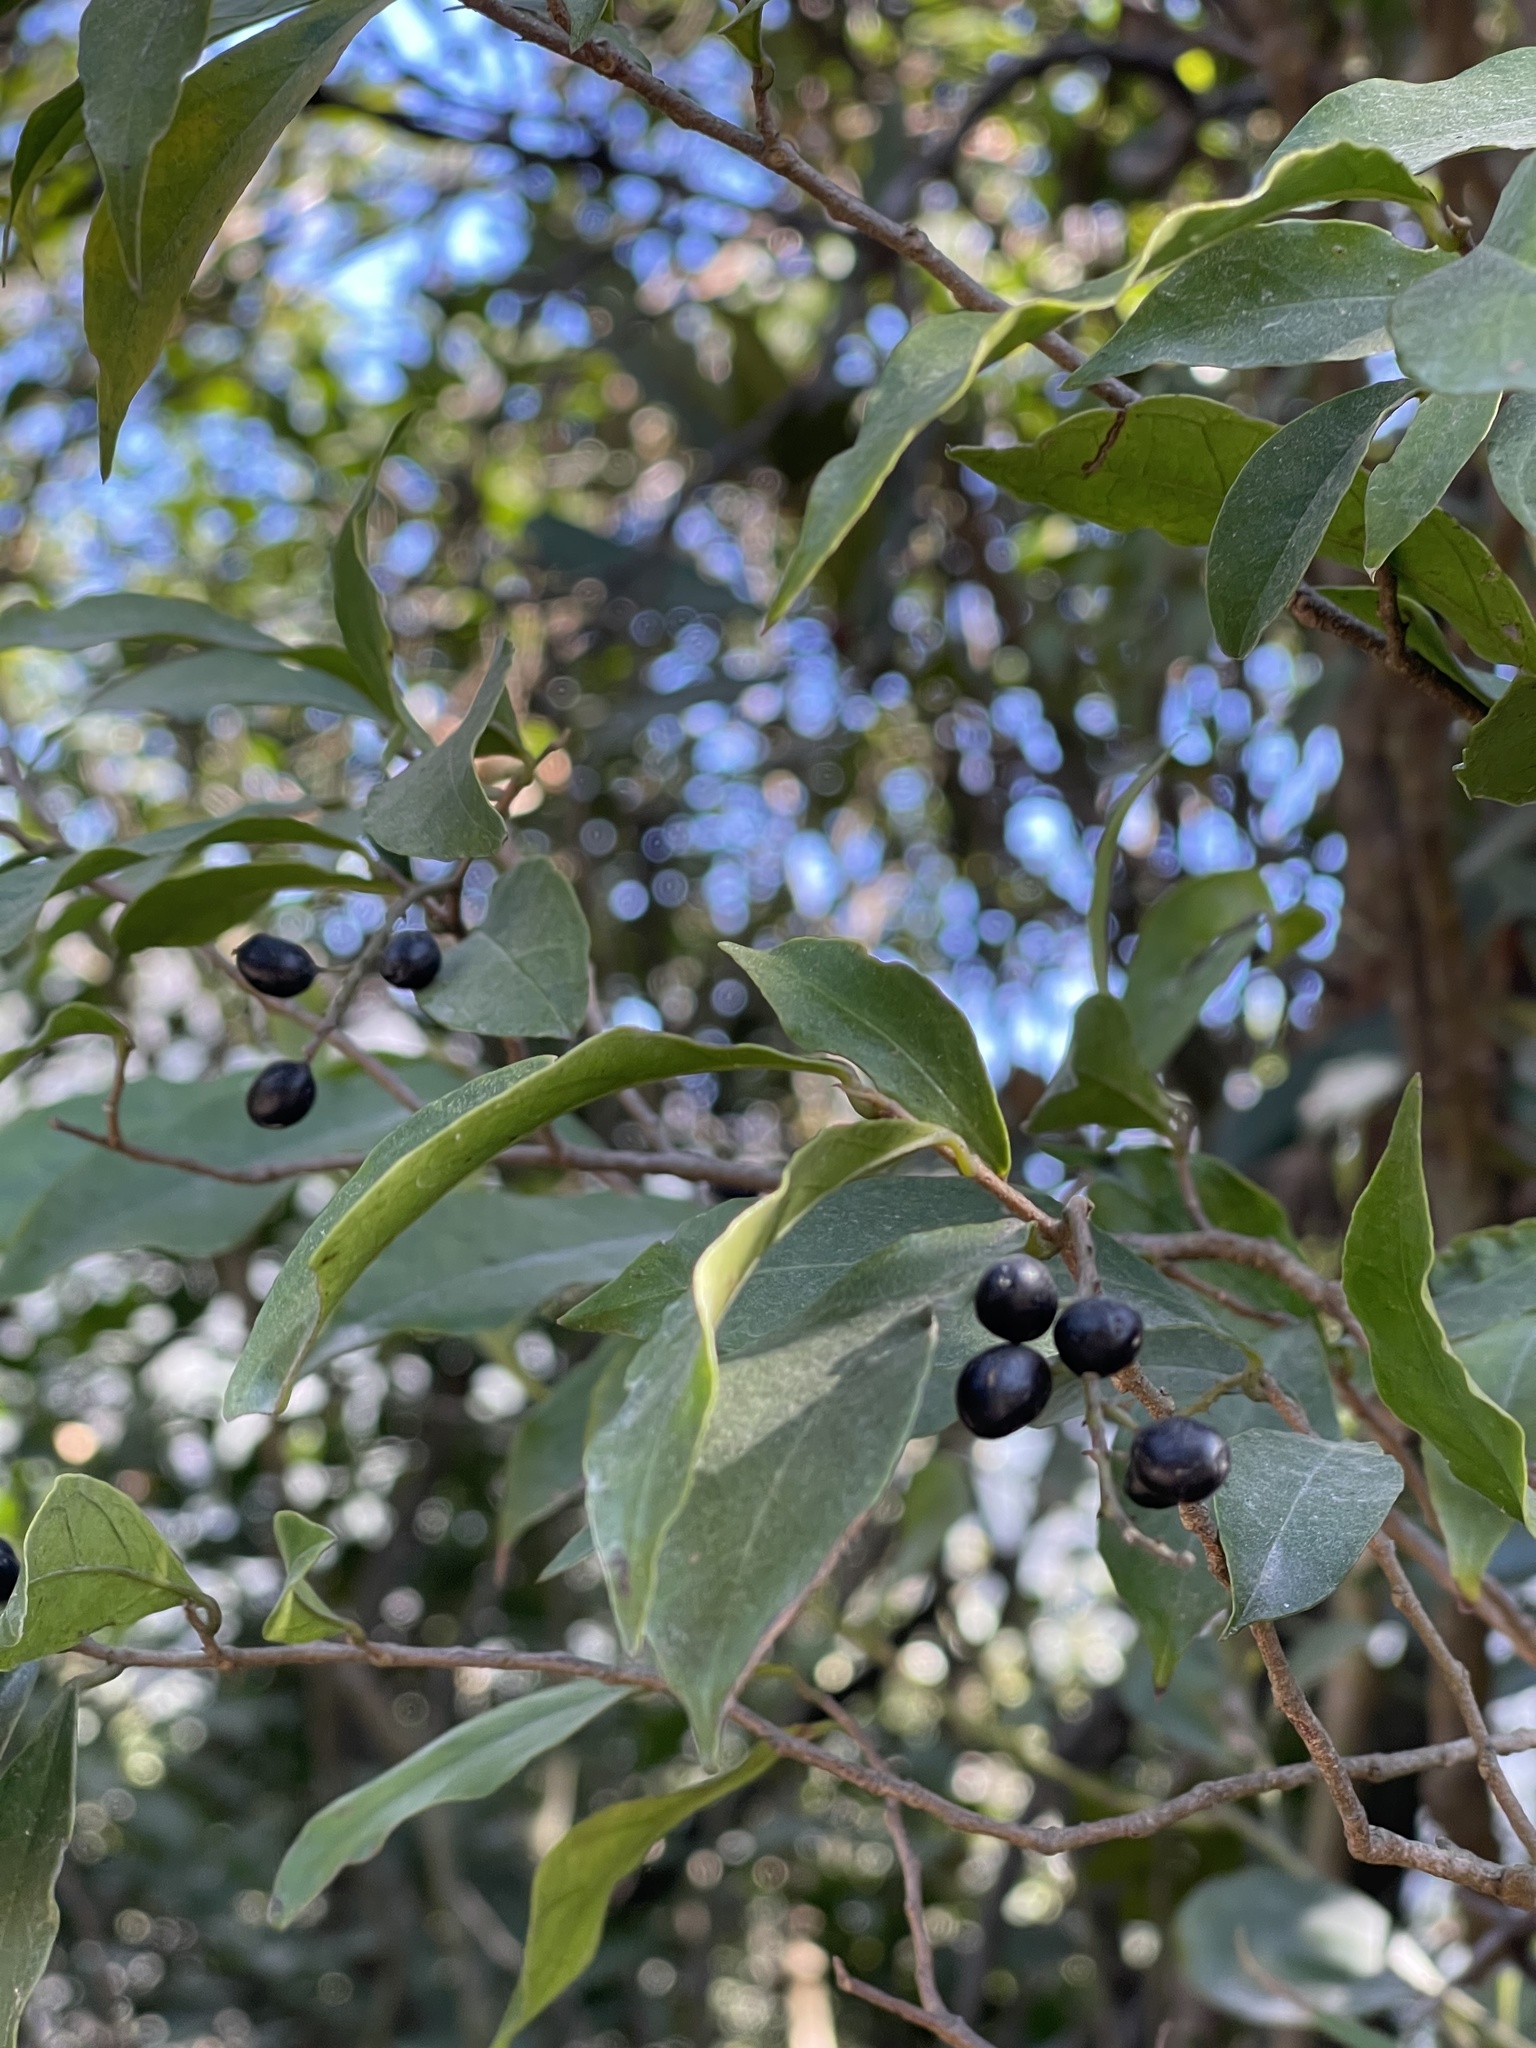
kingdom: Plantae
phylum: Tracheophyta
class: Magnoliopsida
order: Malpighiales
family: Phyllanthaceae
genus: Antidesma
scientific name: Antidesma japonicum
